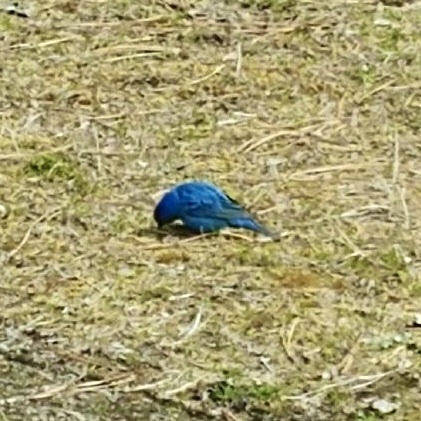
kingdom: Animalia
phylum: Chordata
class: Aves
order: Passeriformes
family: Cardinalidae
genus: Passerina
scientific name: Passerina cyanea
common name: Indigo bunting
